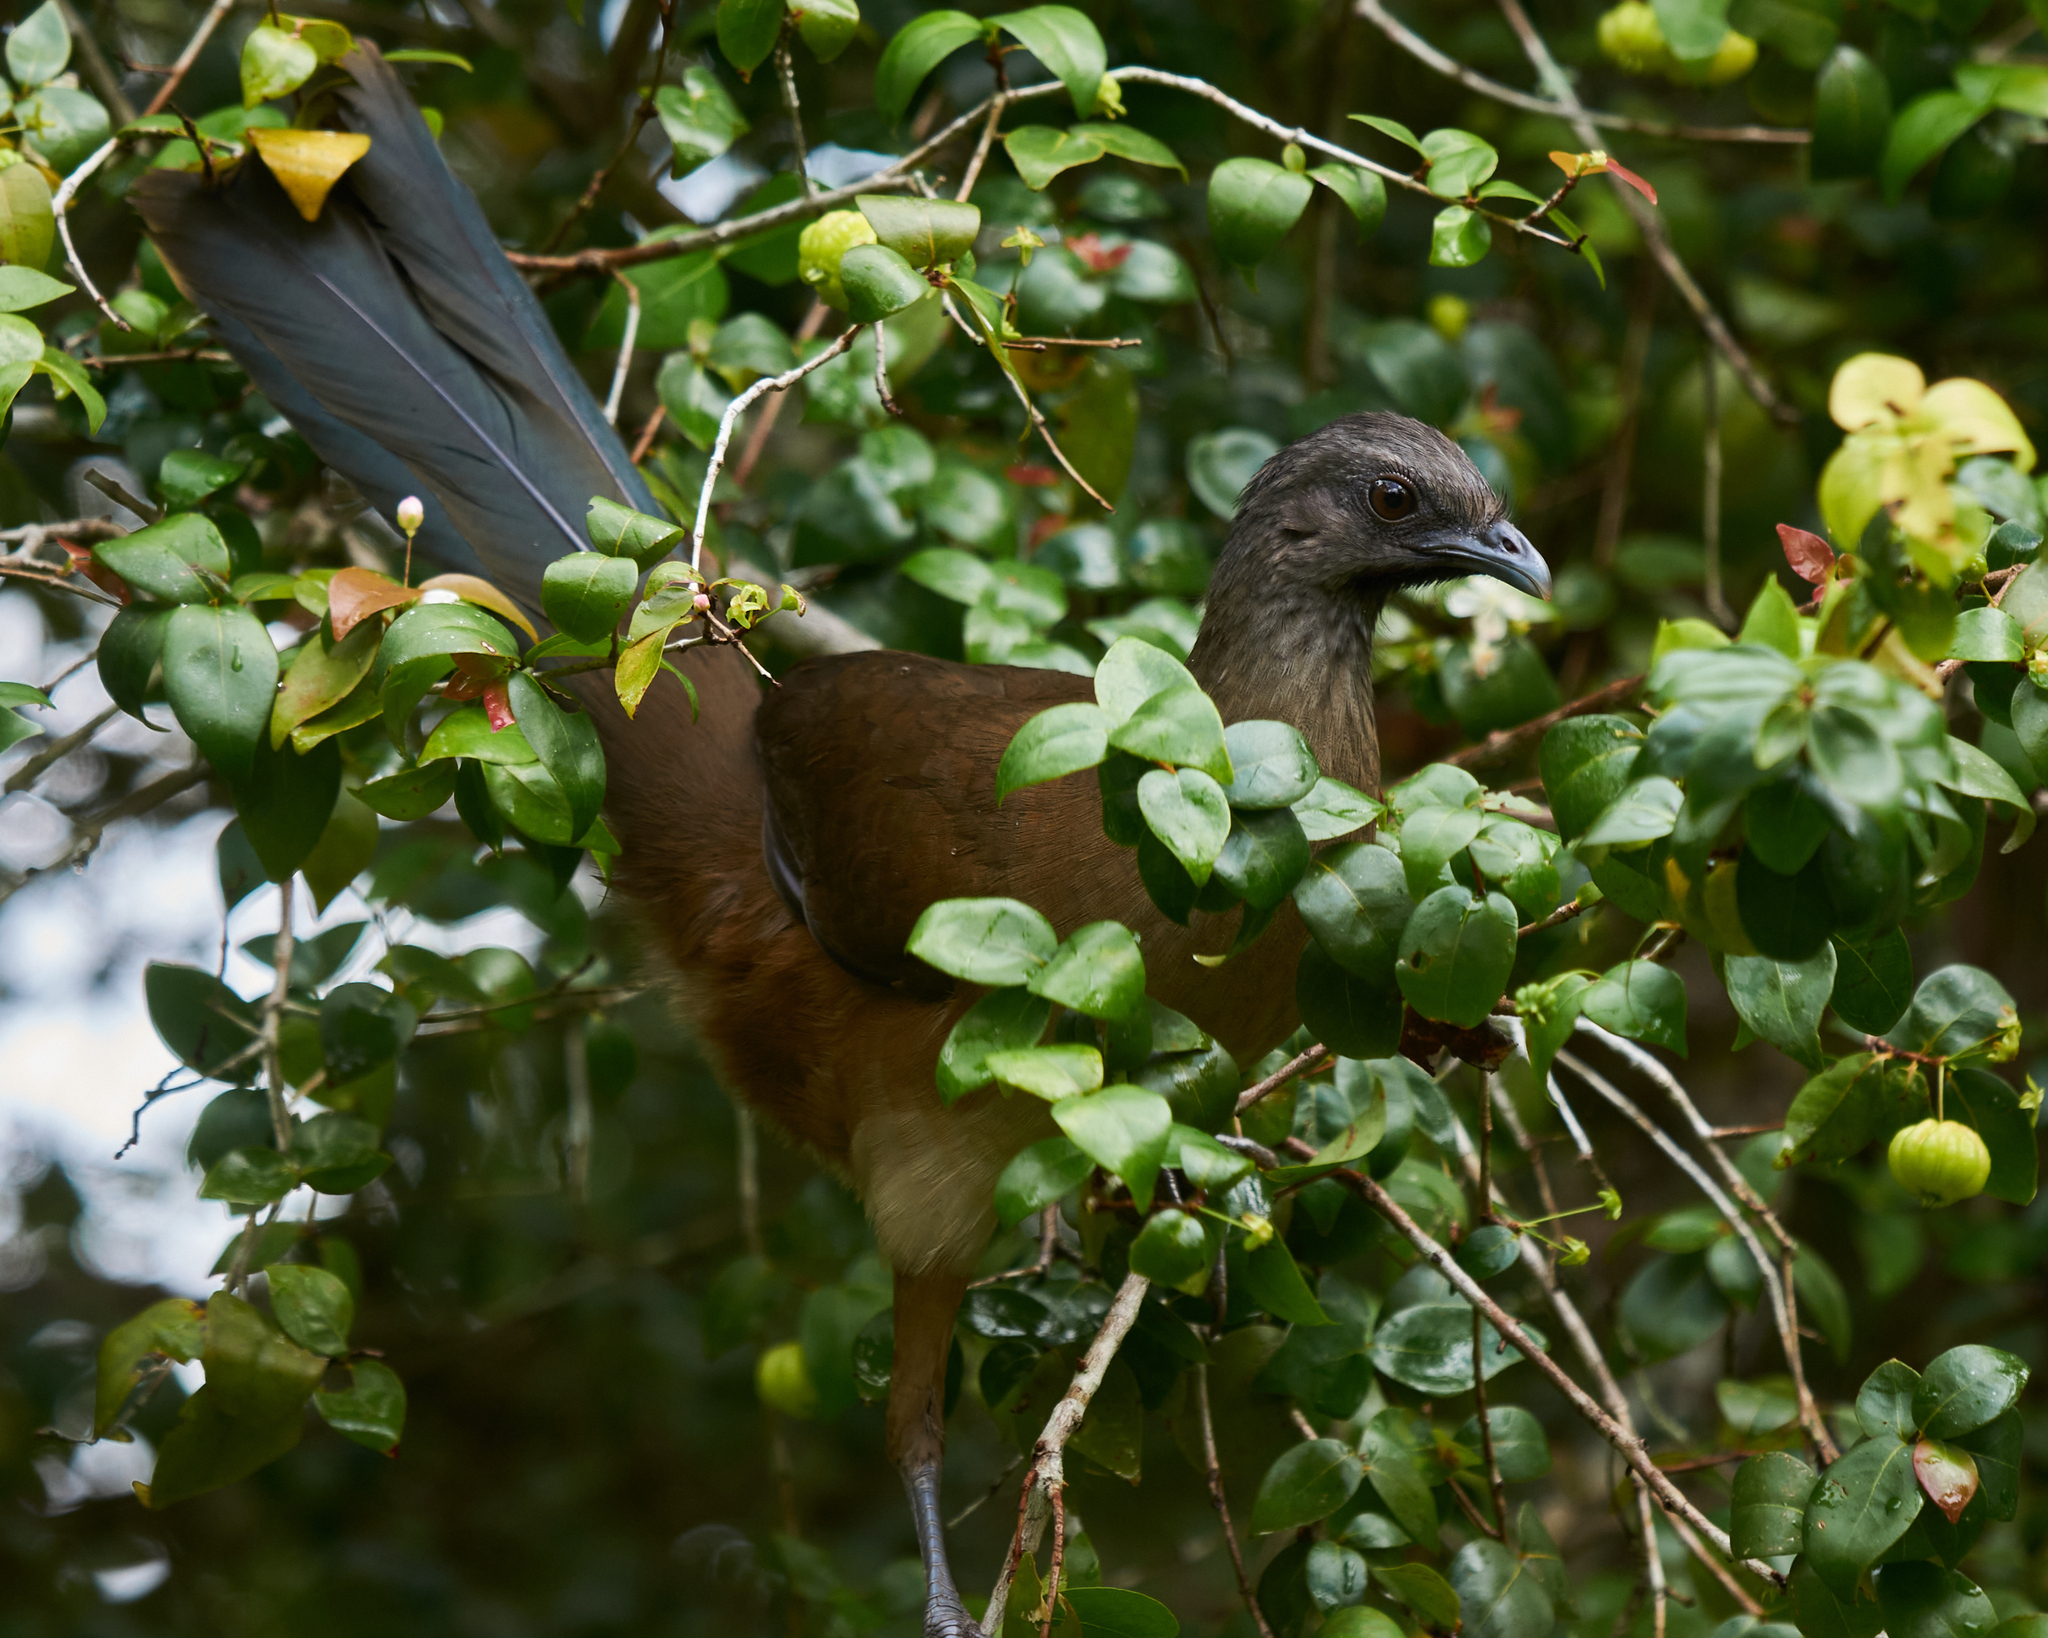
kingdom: Animalia
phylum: Chordata
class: Aves
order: Galliformes
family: Cracidae
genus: Ortalis
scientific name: Ortalis vetula
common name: Plain chachalaca
